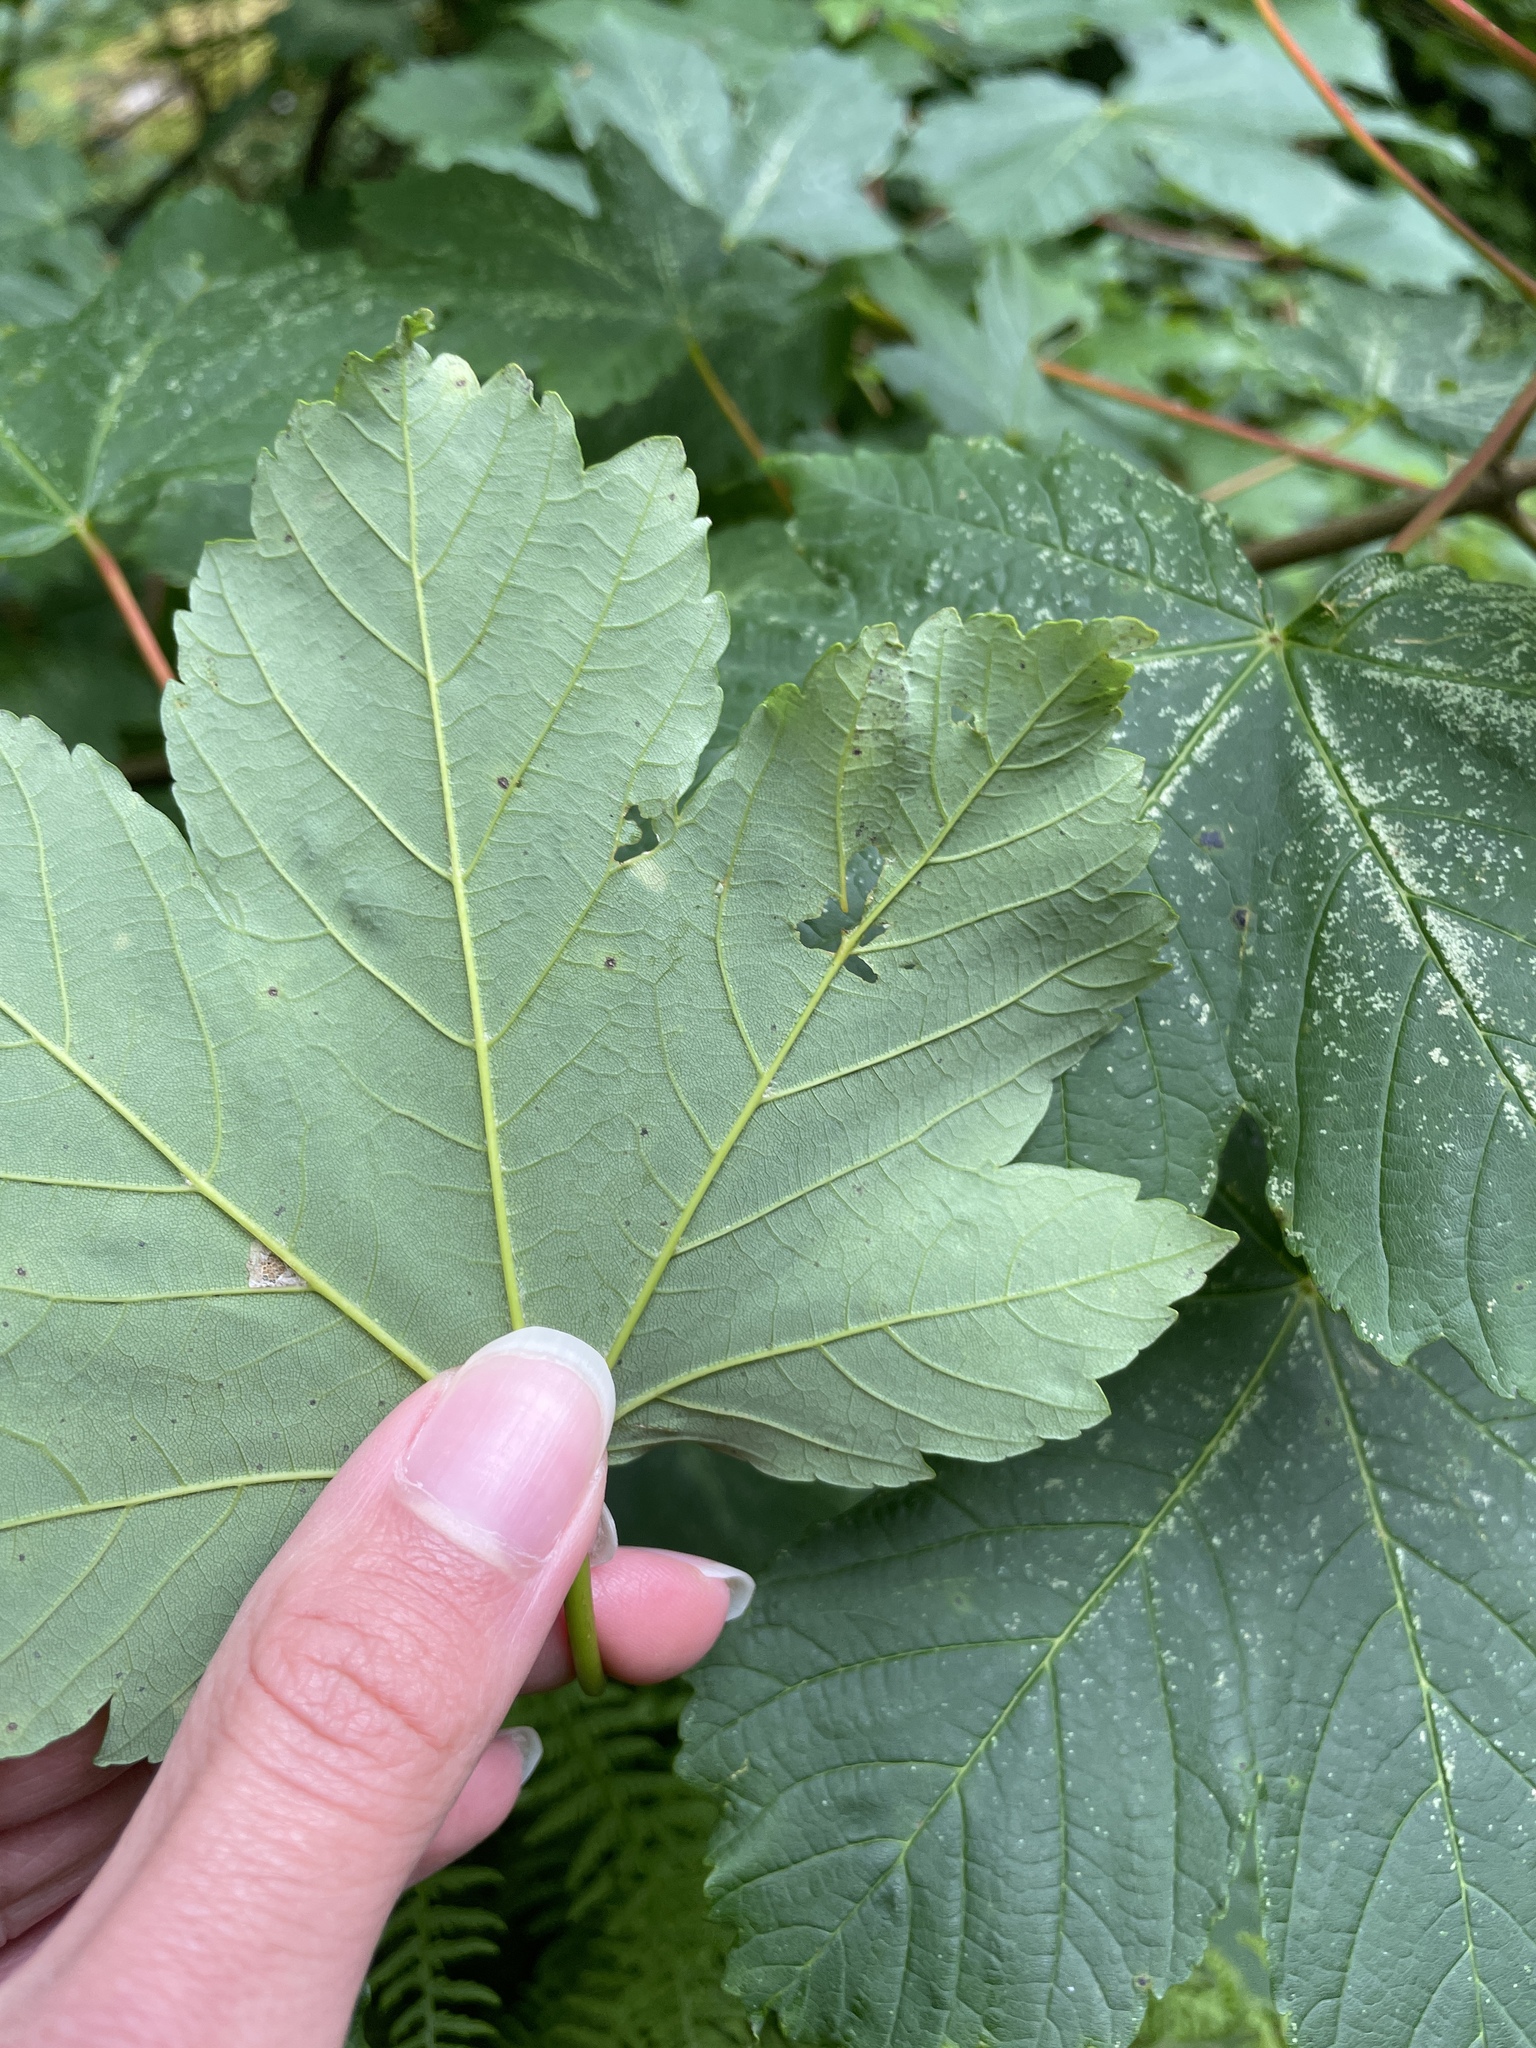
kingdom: Plantae
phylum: Tracheophyta
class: Magnoliopsida
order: Sapindales
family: Sapindaceae
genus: Acer
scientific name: Acer pseudoplatanus
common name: Sycamore
